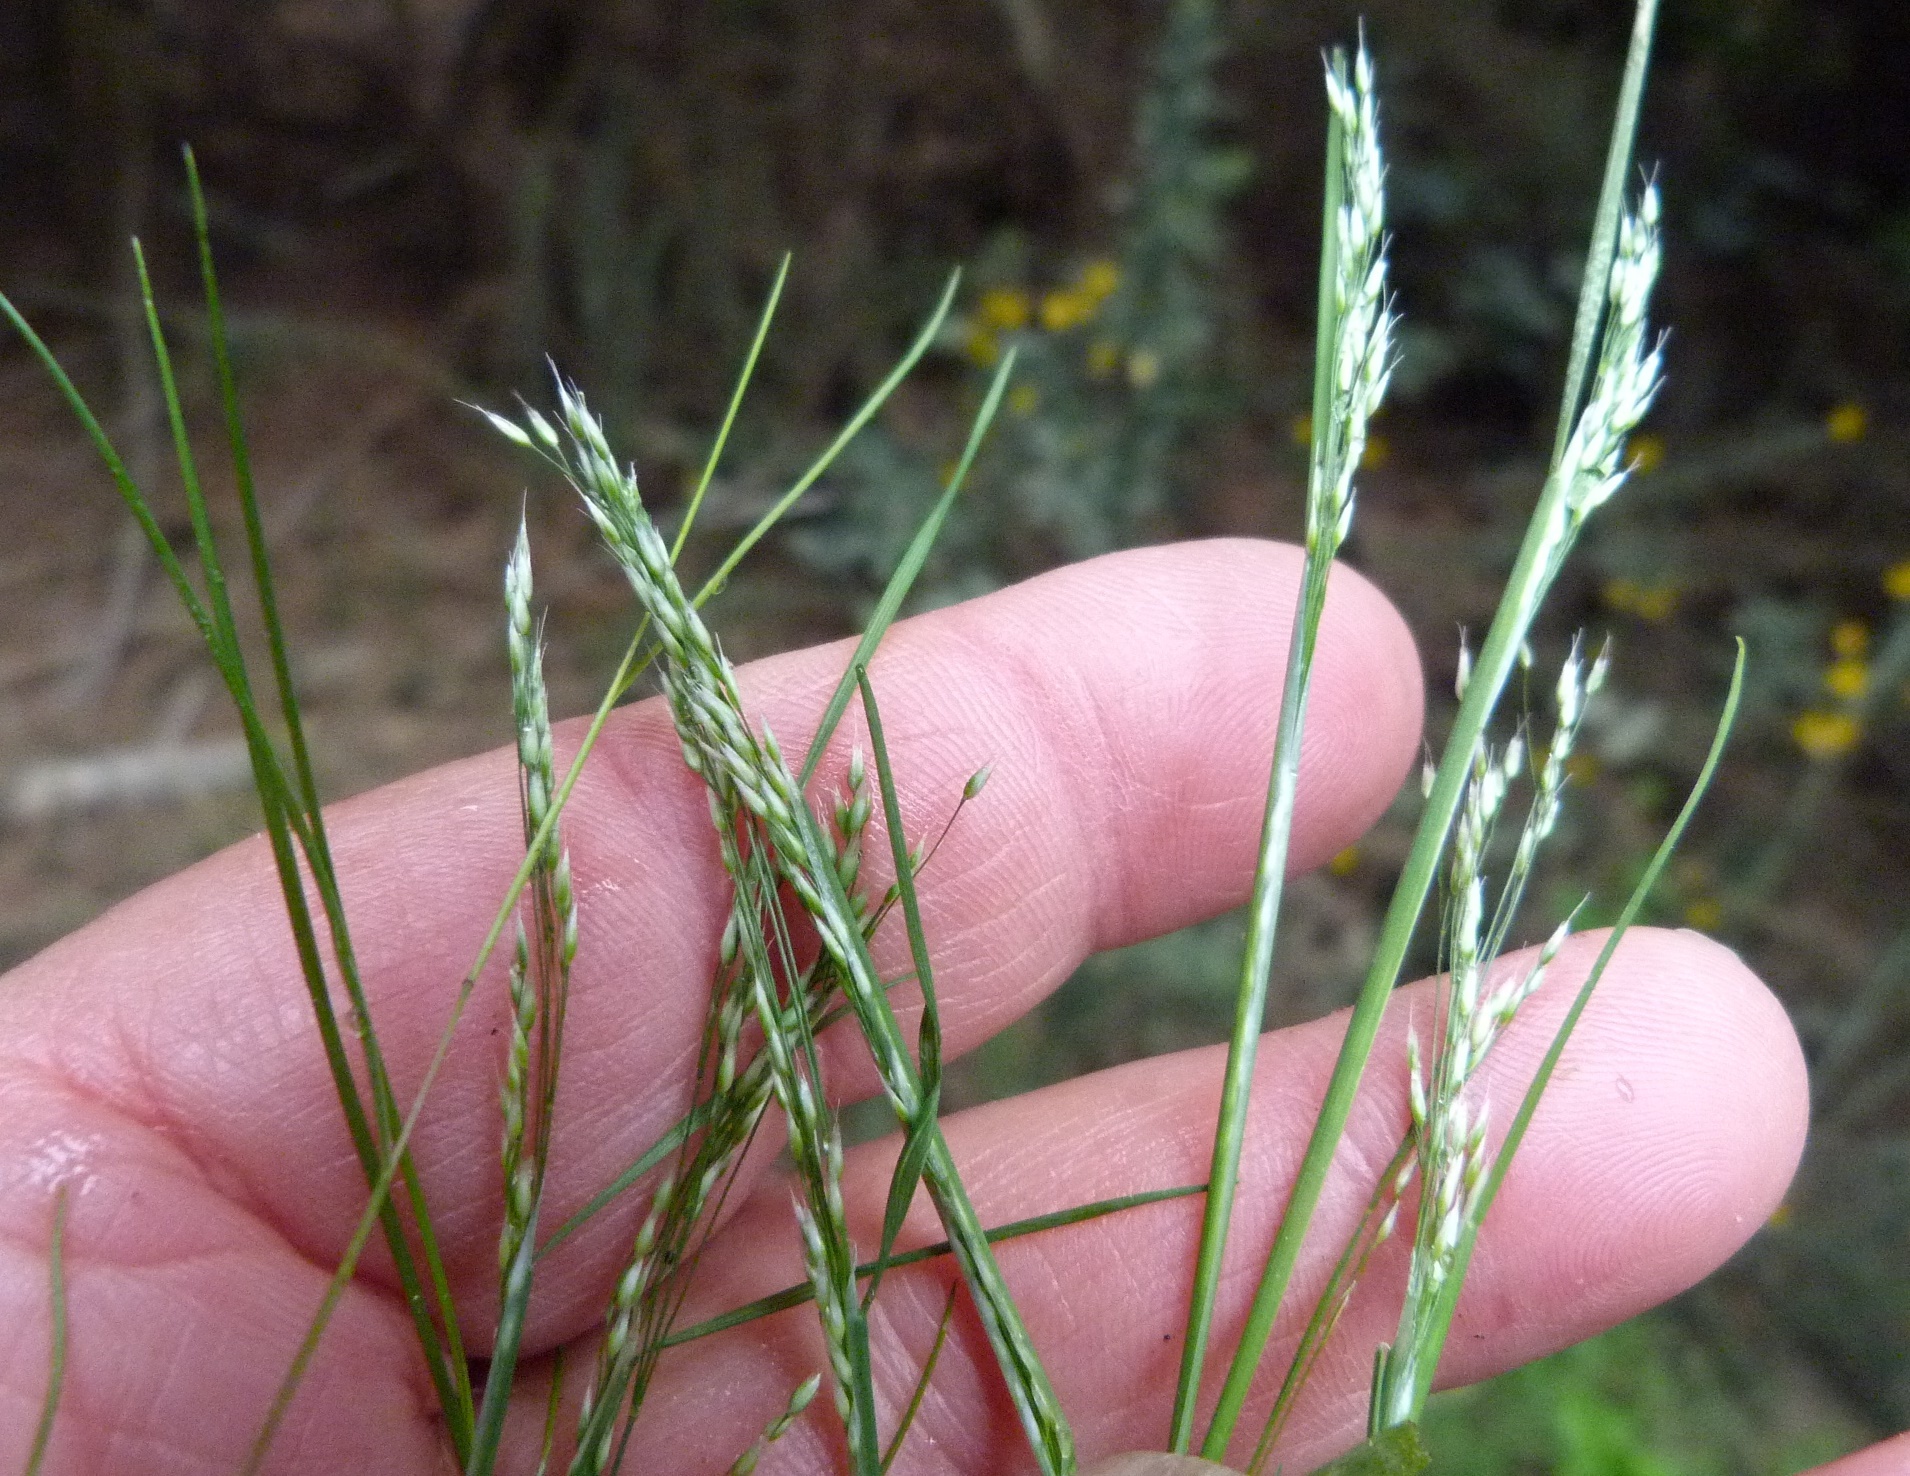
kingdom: Plantae
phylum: Tracheophyta
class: Liliopsida
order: Poales
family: Poaceae
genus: Aira
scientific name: Aira caryophyllea
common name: Silver hairgrass
